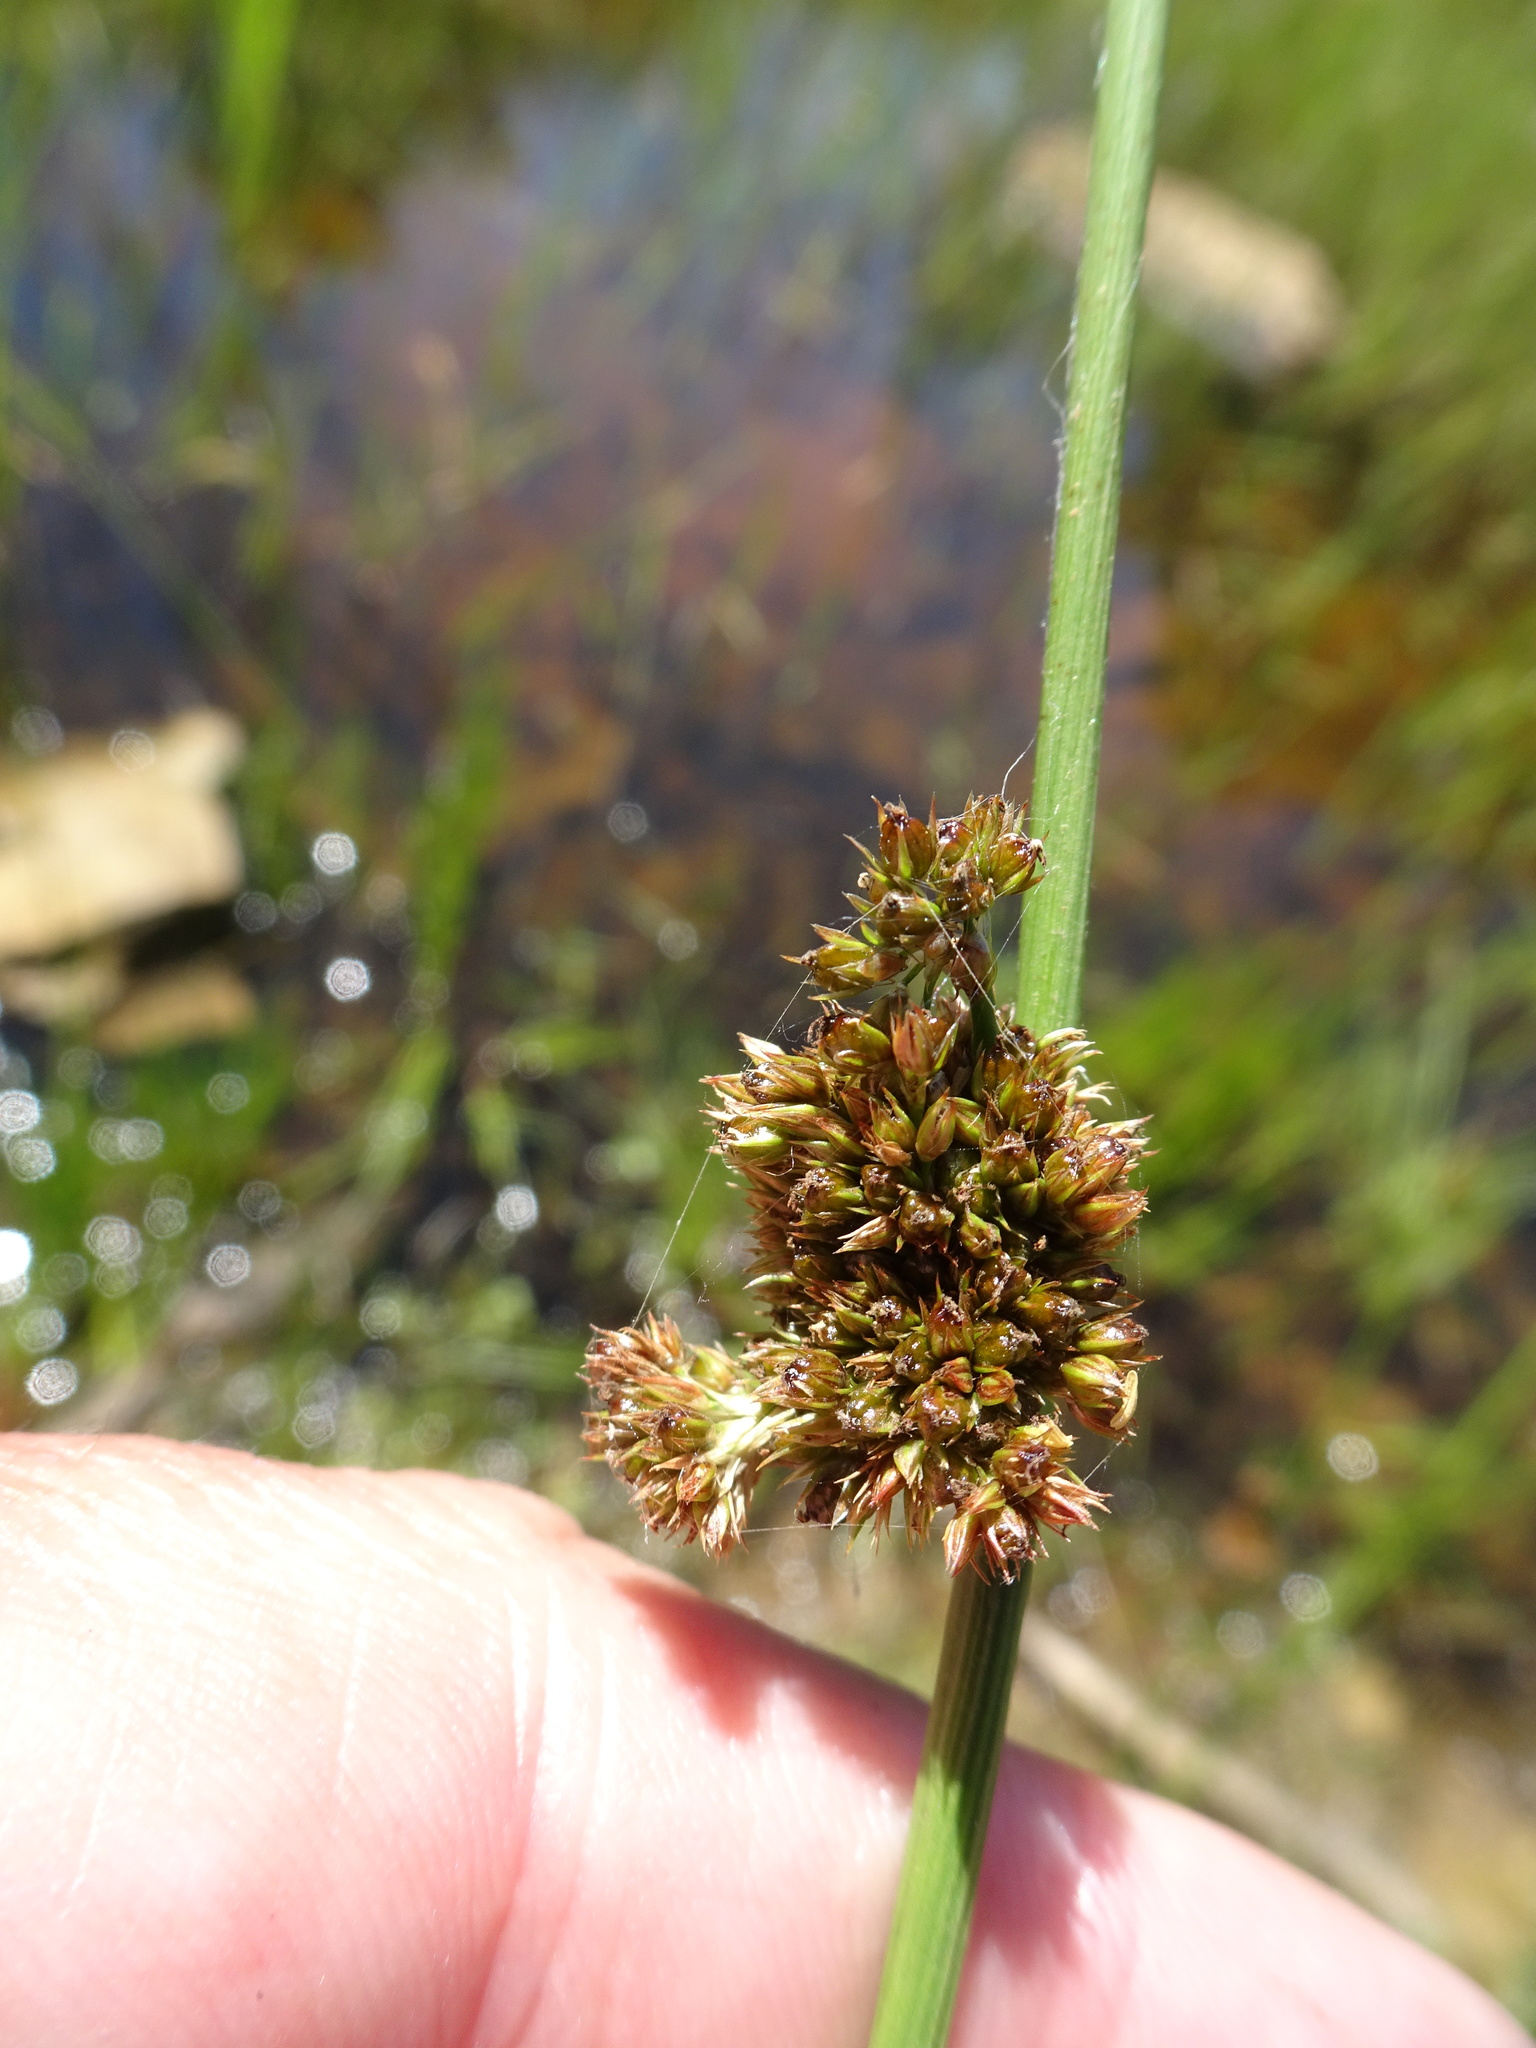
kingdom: Plantae
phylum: Tracheophyta
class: Liliopsida
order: Poales
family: Juncaceae
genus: Juncus
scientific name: Juncus effusus
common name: Soft rush
